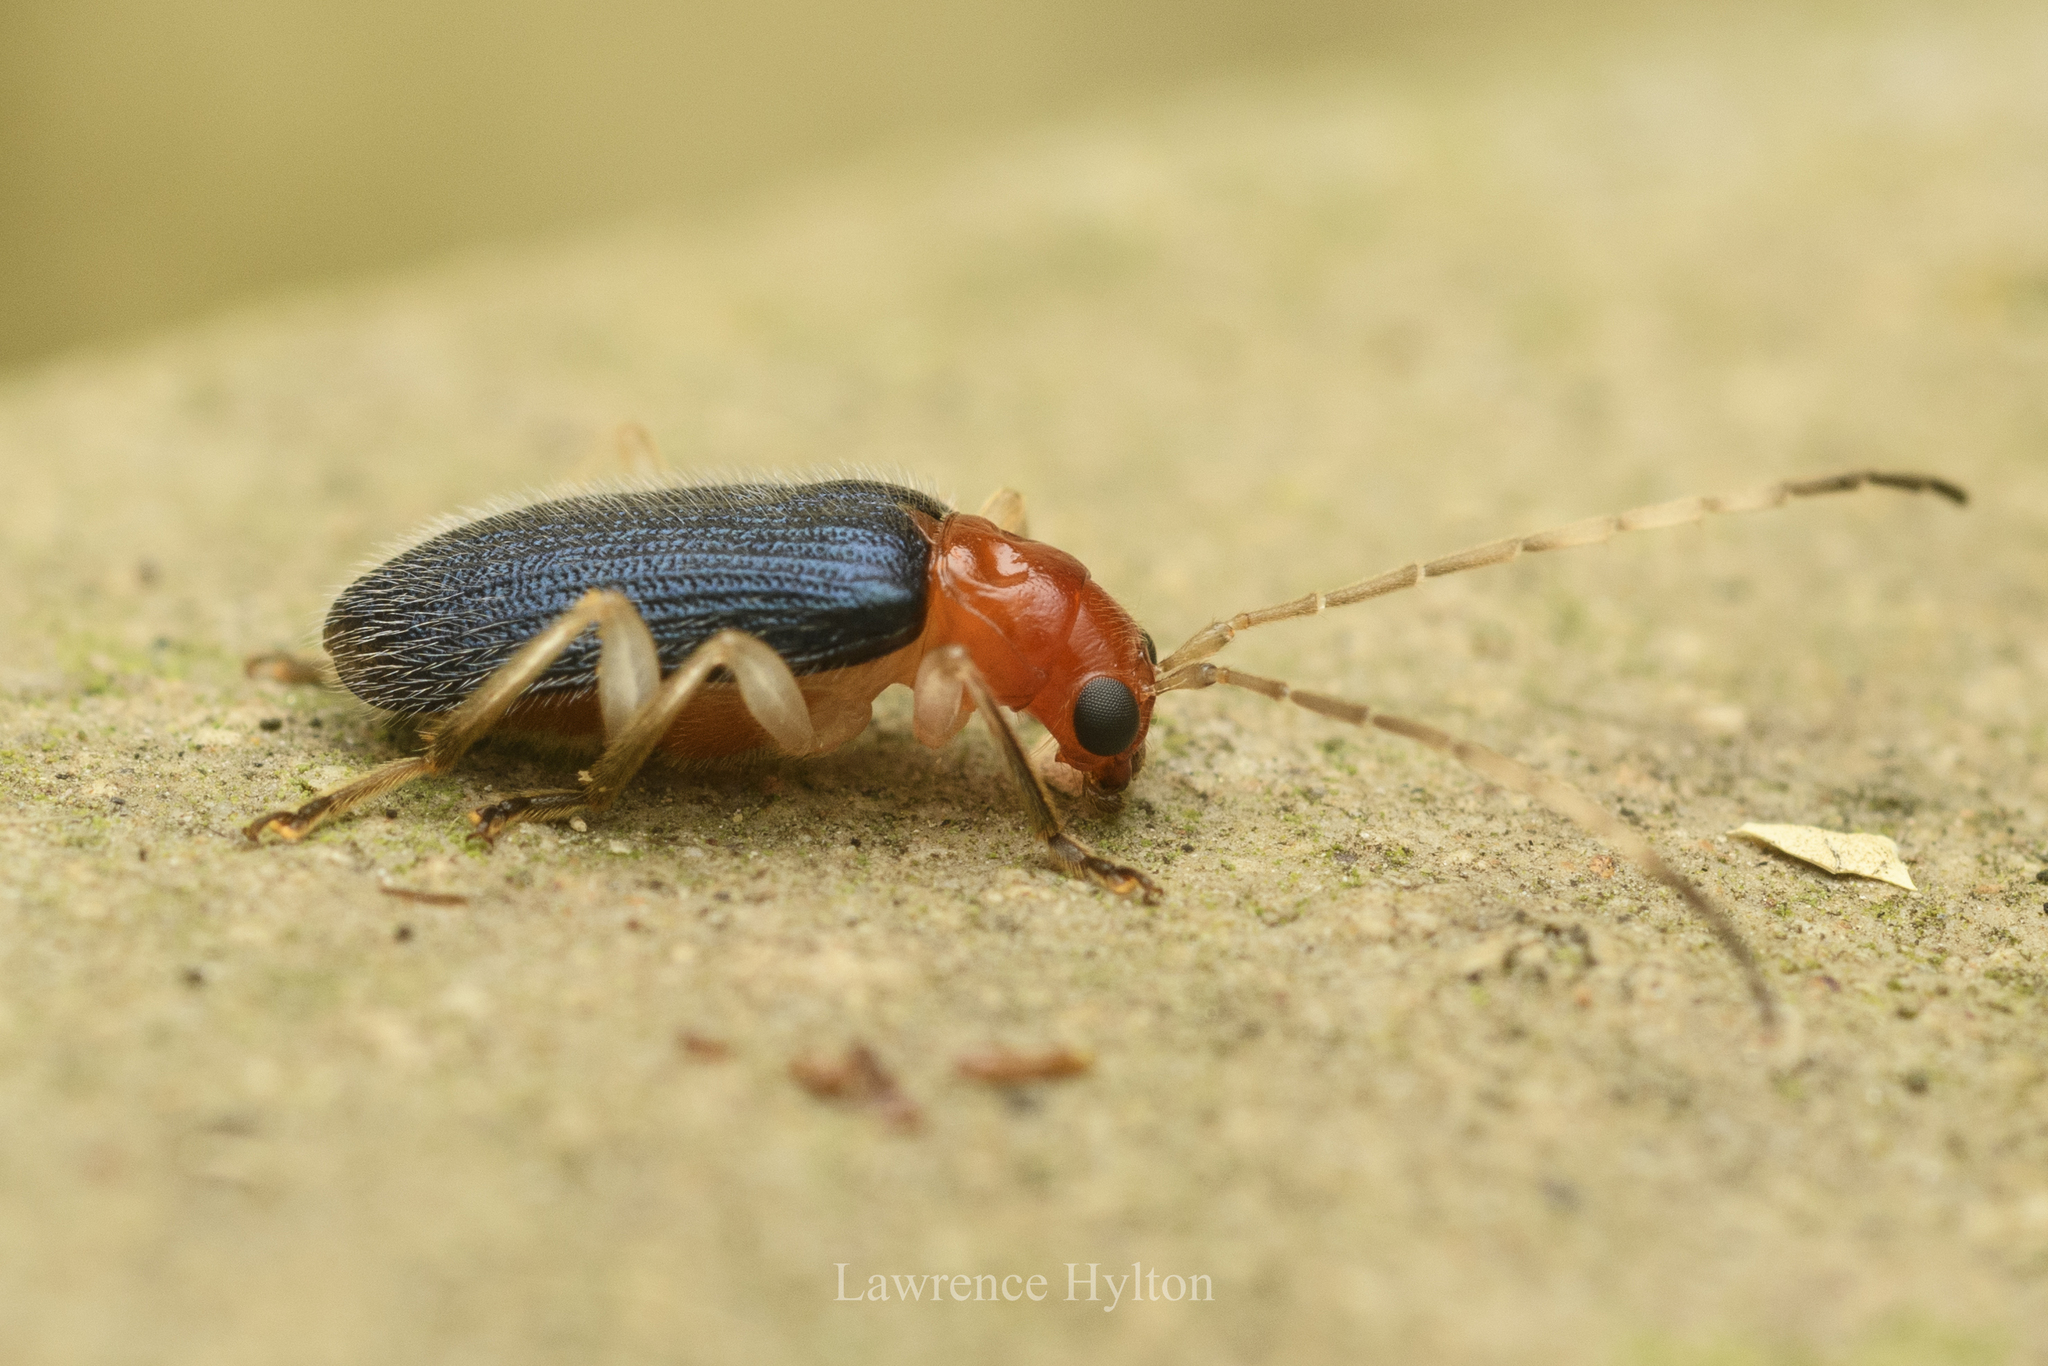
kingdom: Animalia
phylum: Arthropoda
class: Insecta
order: Coleoptera
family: Chrysomelidae
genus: Trichobalya
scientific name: Trichobalya
